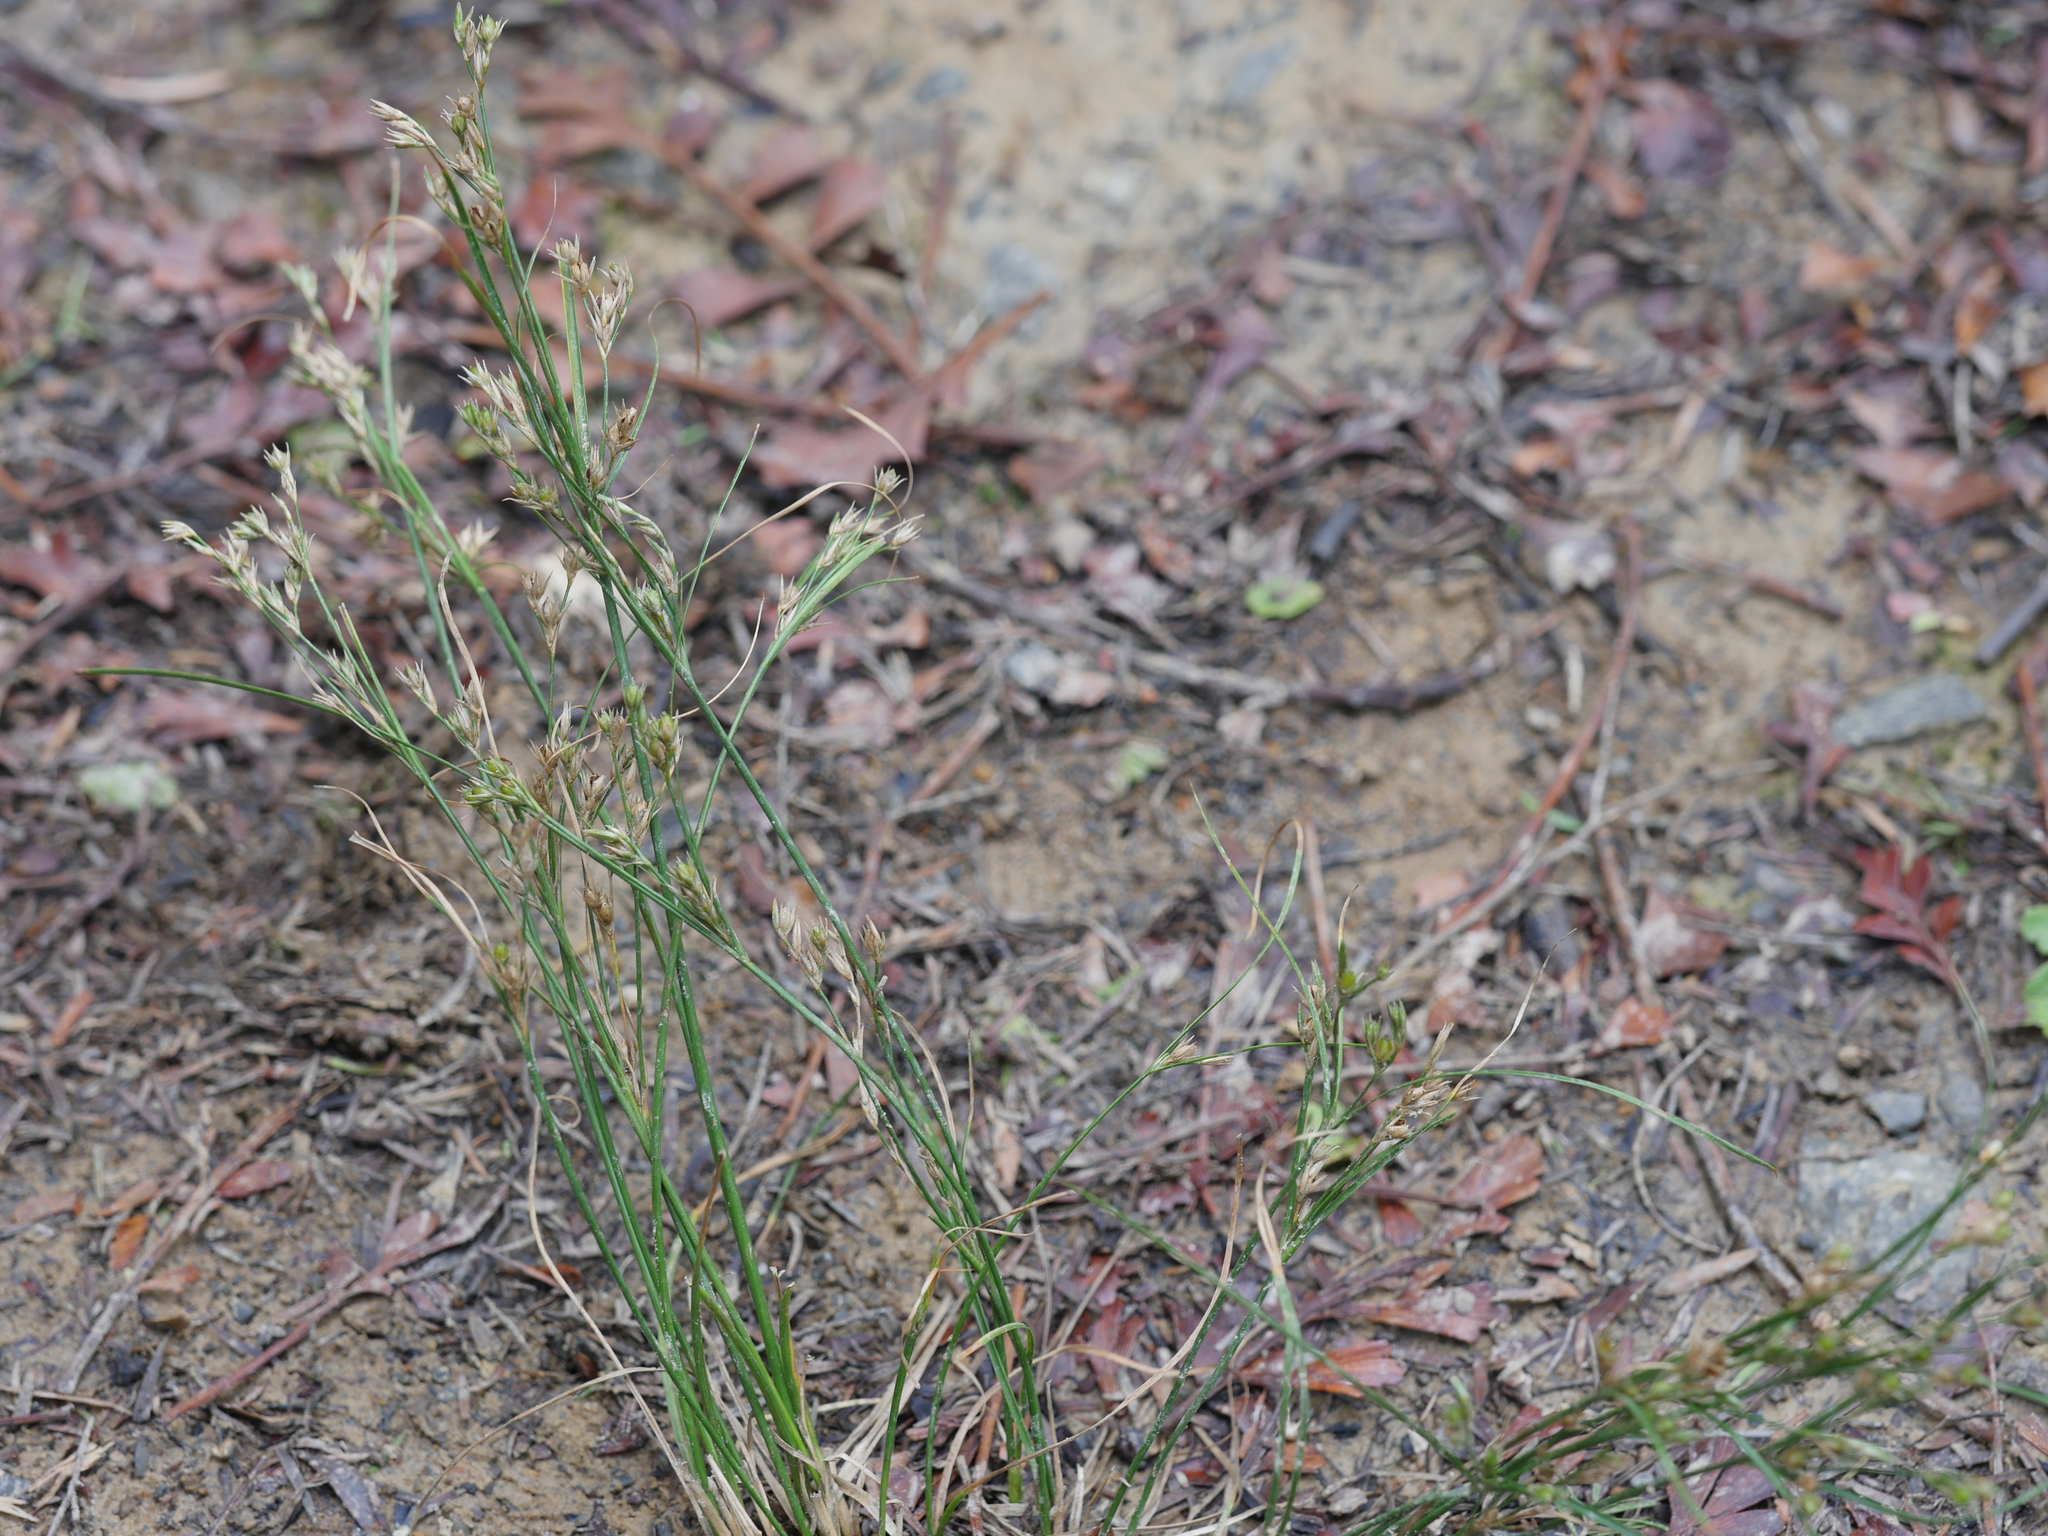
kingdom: Plantae
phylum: Tracheophyta
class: Liliopsida
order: Poales
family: Juncaceae
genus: Juncus
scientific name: Juncus bufonius
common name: Toad rush
